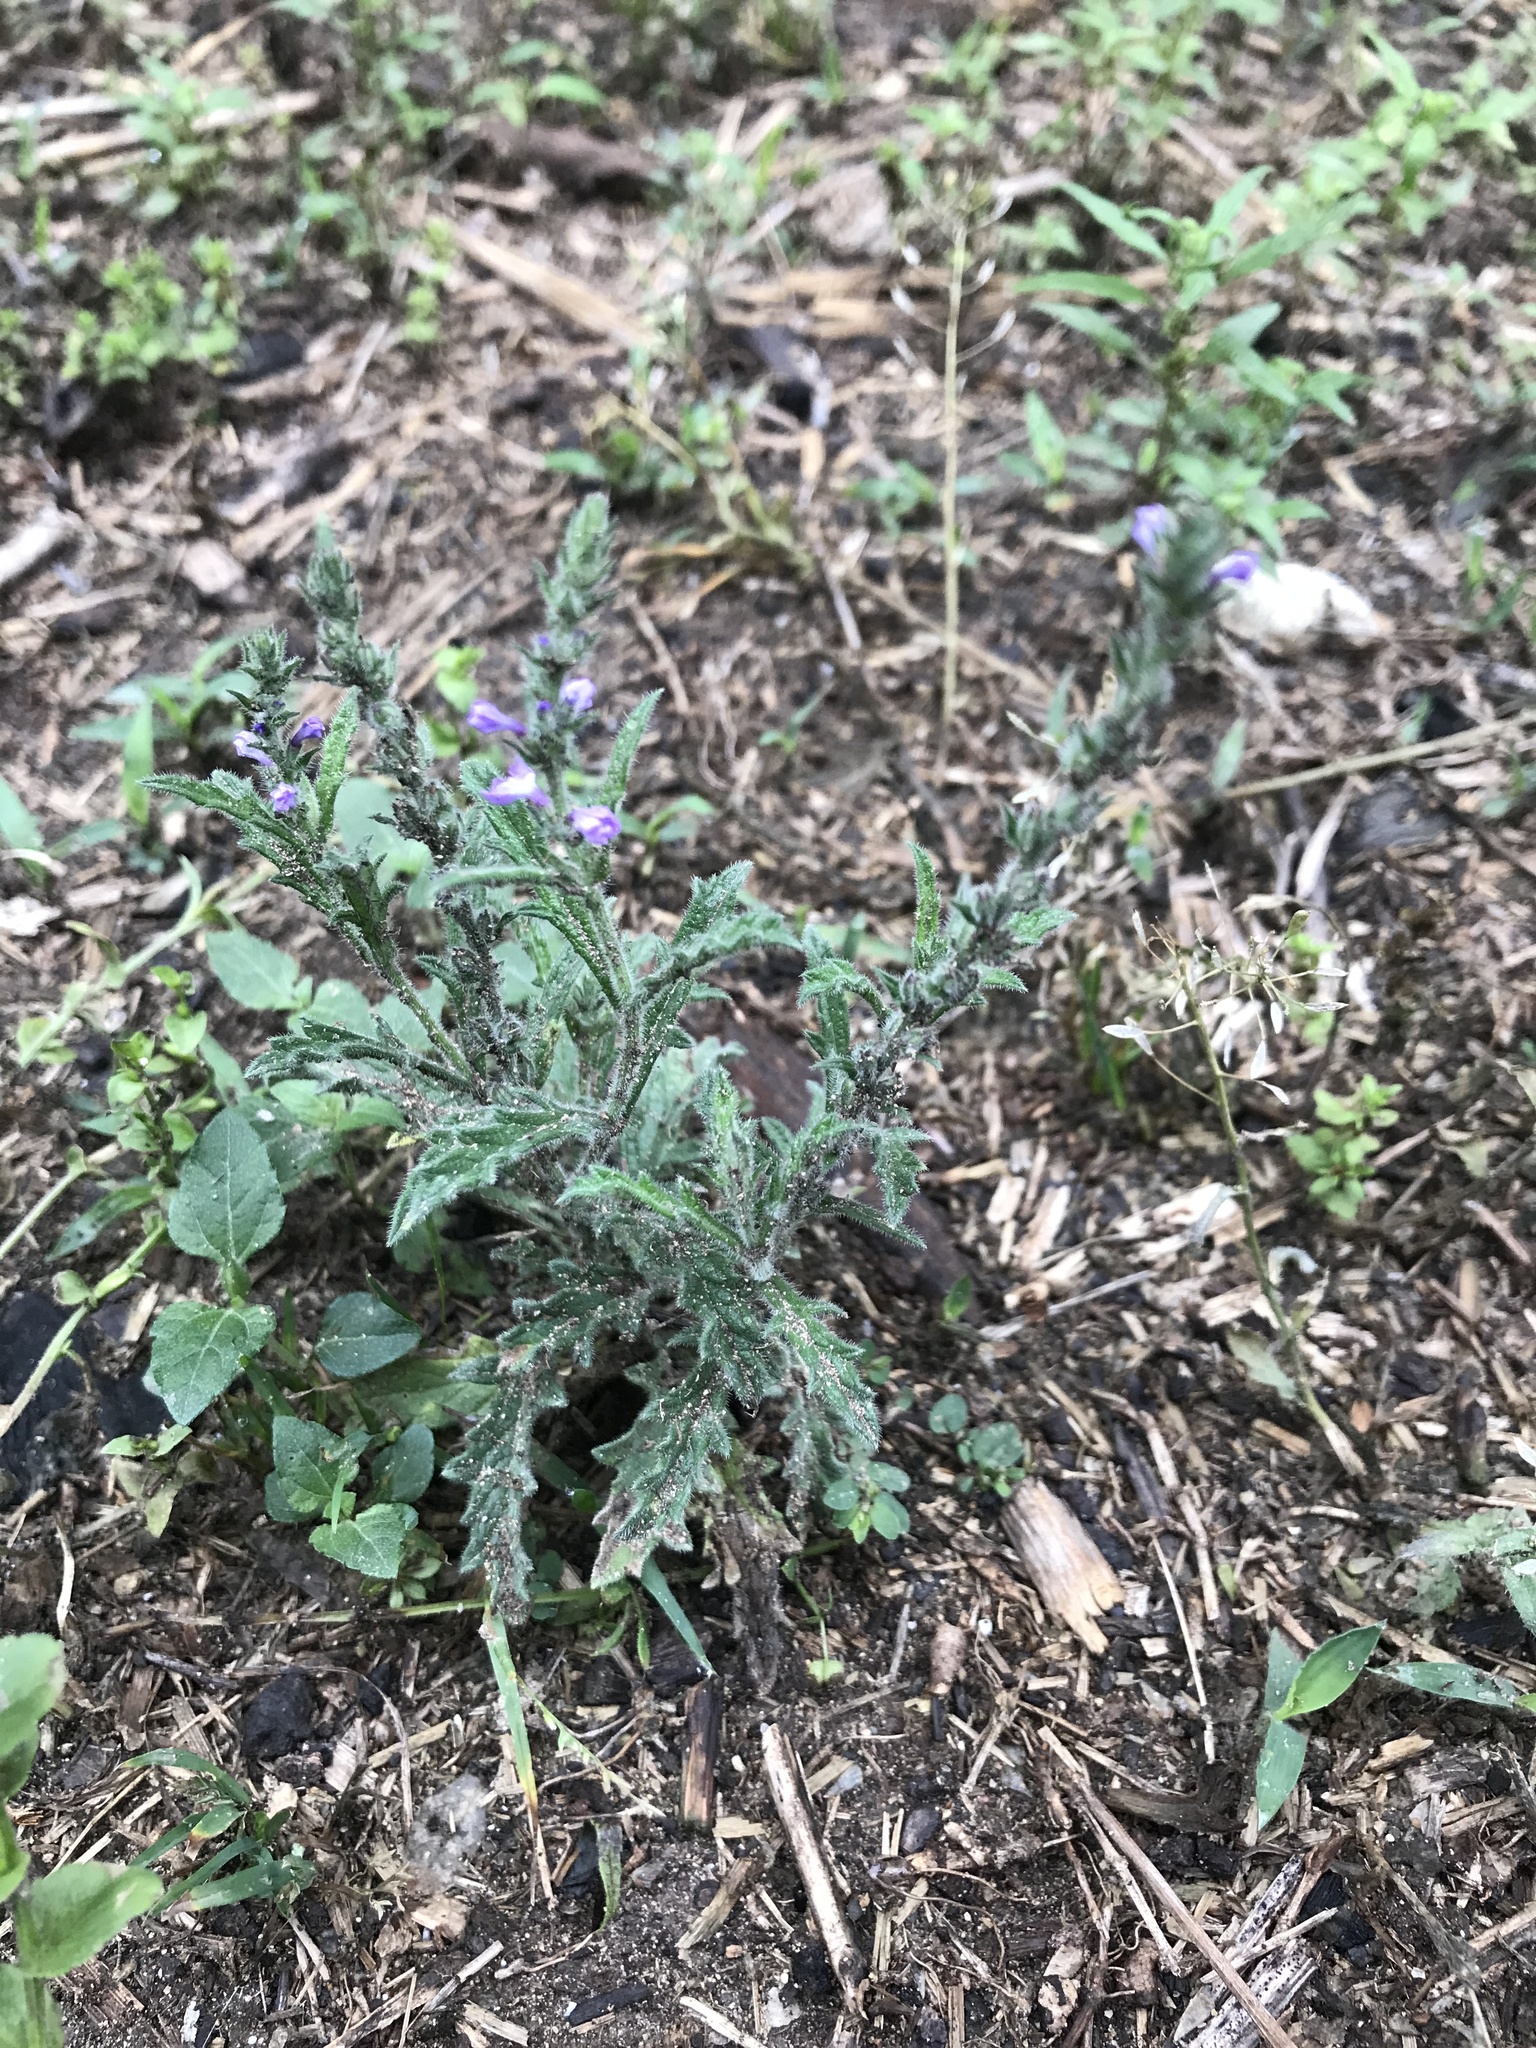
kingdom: Plantae
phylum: Tracheophyta
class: Magnoliopsida
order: Lamiales
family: Verbenaceae
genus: Verbena
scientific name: Verbena canescens
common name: Gray vervain
